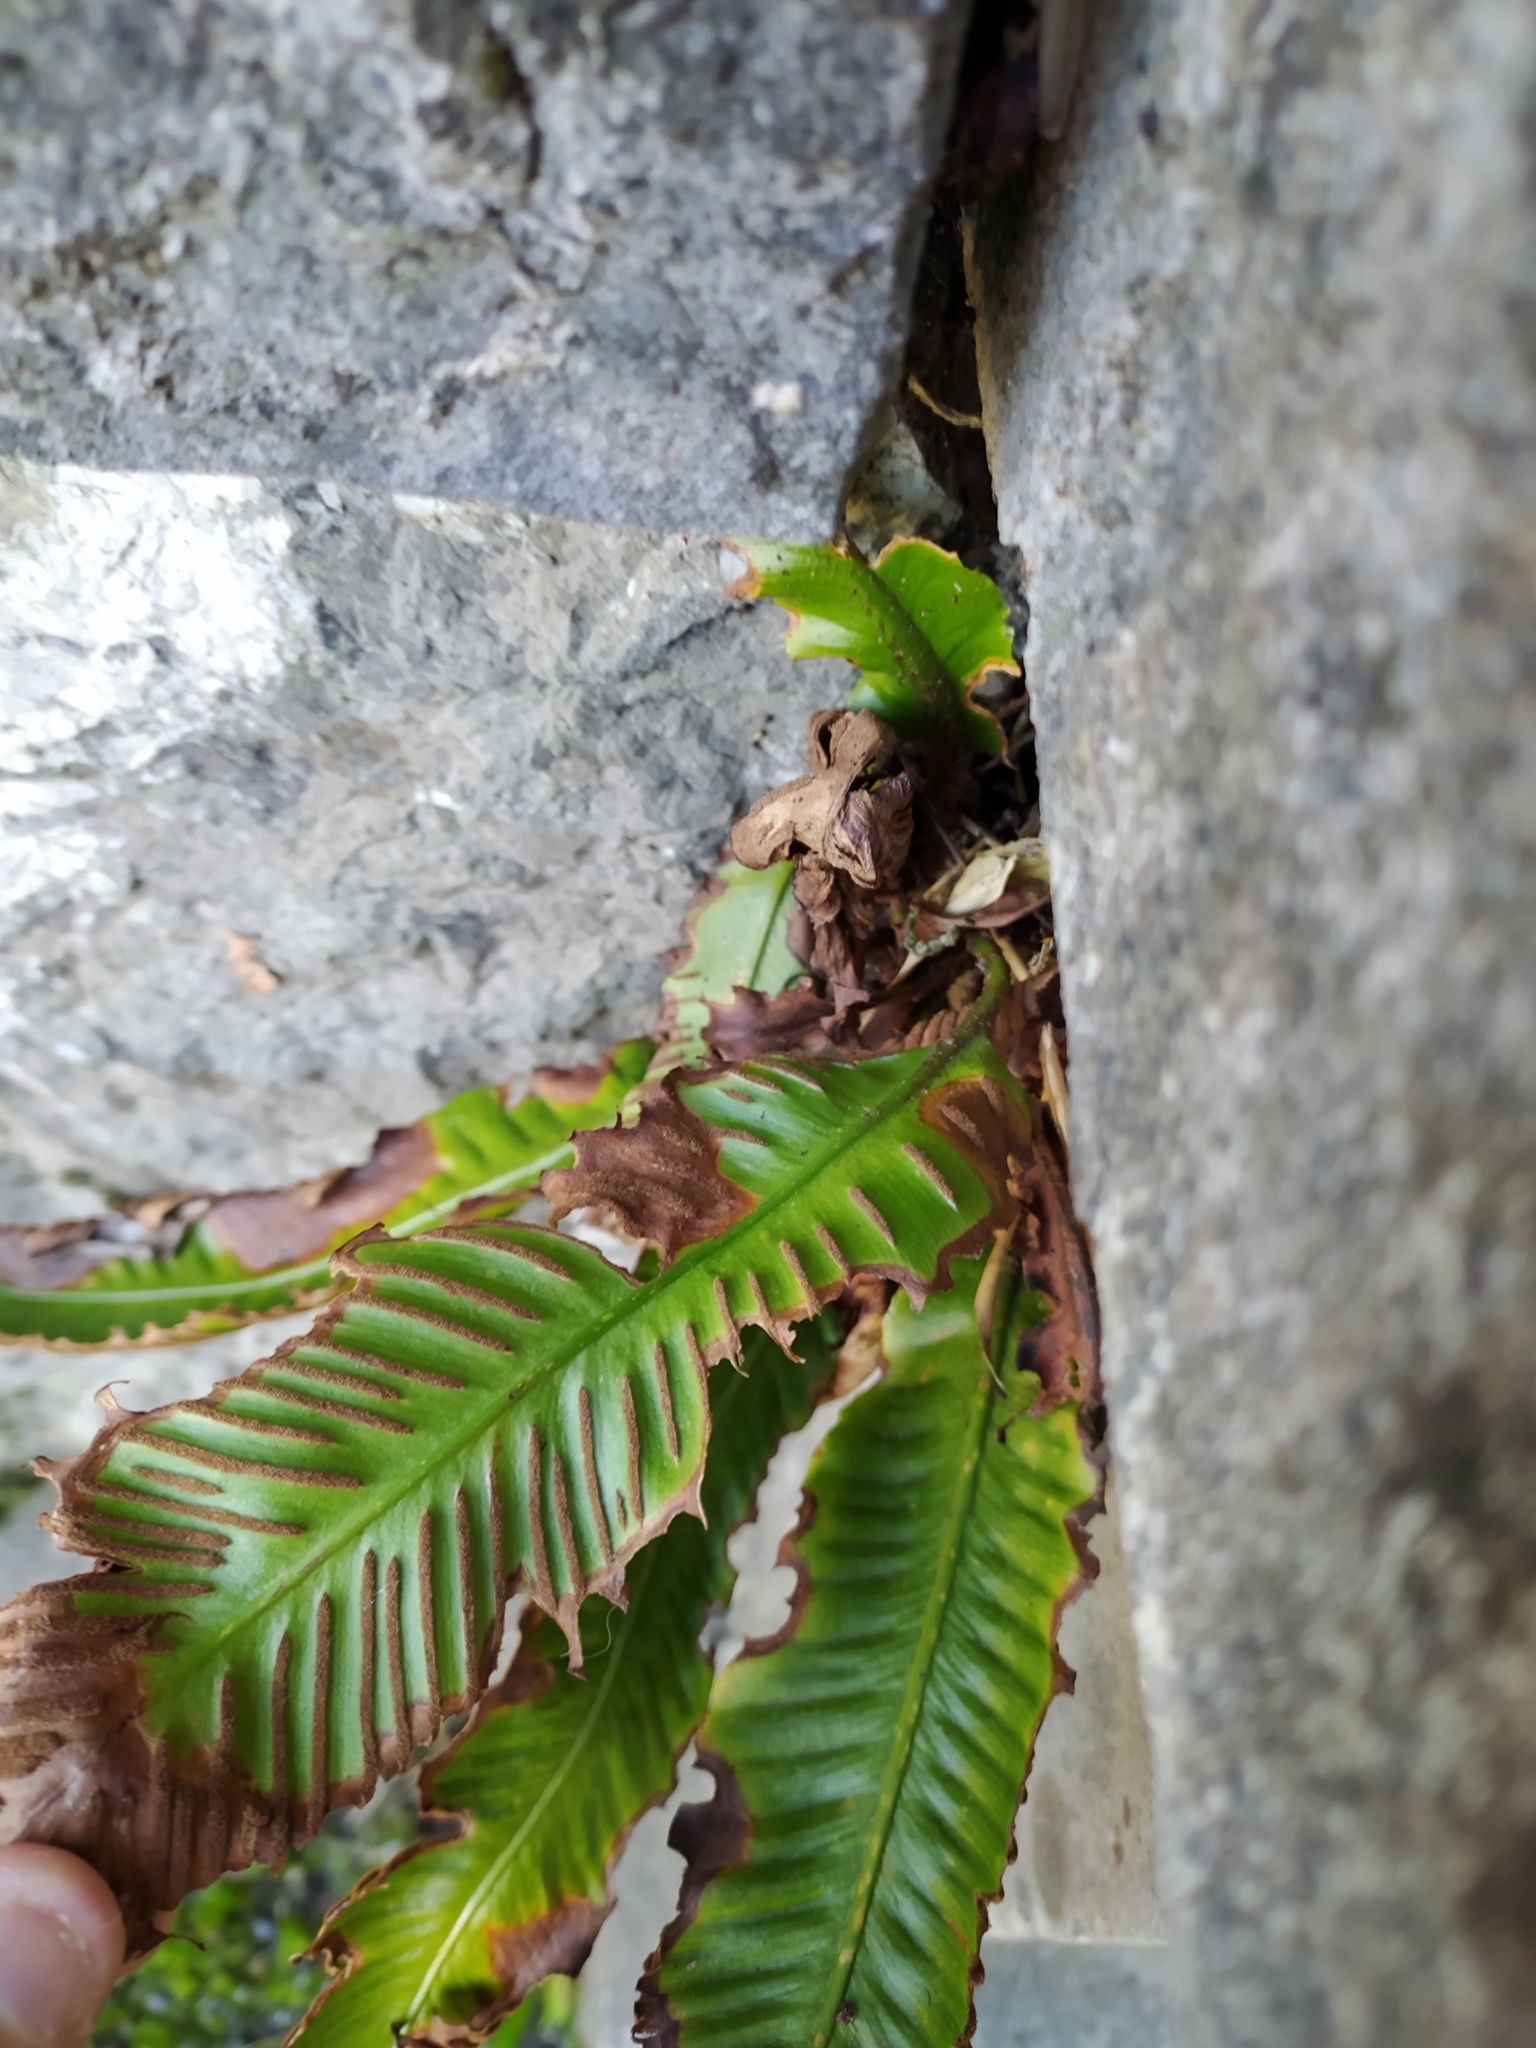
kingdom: Plantae
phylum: Tracheophyta
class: Polypodiopsida
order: Polypodiales
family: Aspleniaceae
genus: Asplenium
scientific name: Asplenium scolopendrium
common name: Hart's-tongue fern
